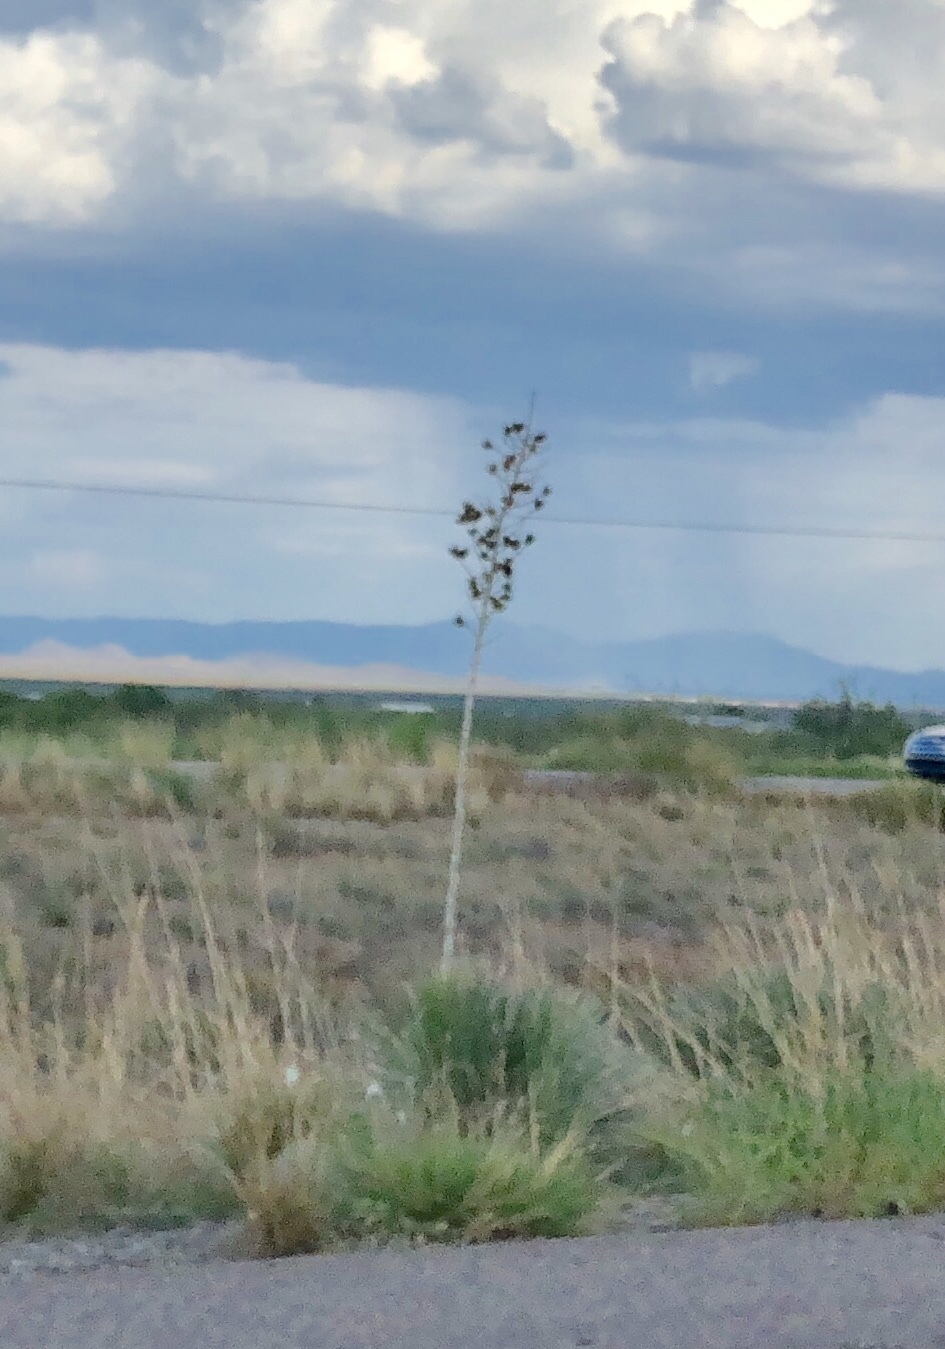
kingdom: Plantae
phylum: Tracheophyta
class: Liliopsida
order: Asparagales
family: Asparagaceae
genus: Yucca
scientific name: Yucca elata
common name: Palmella
